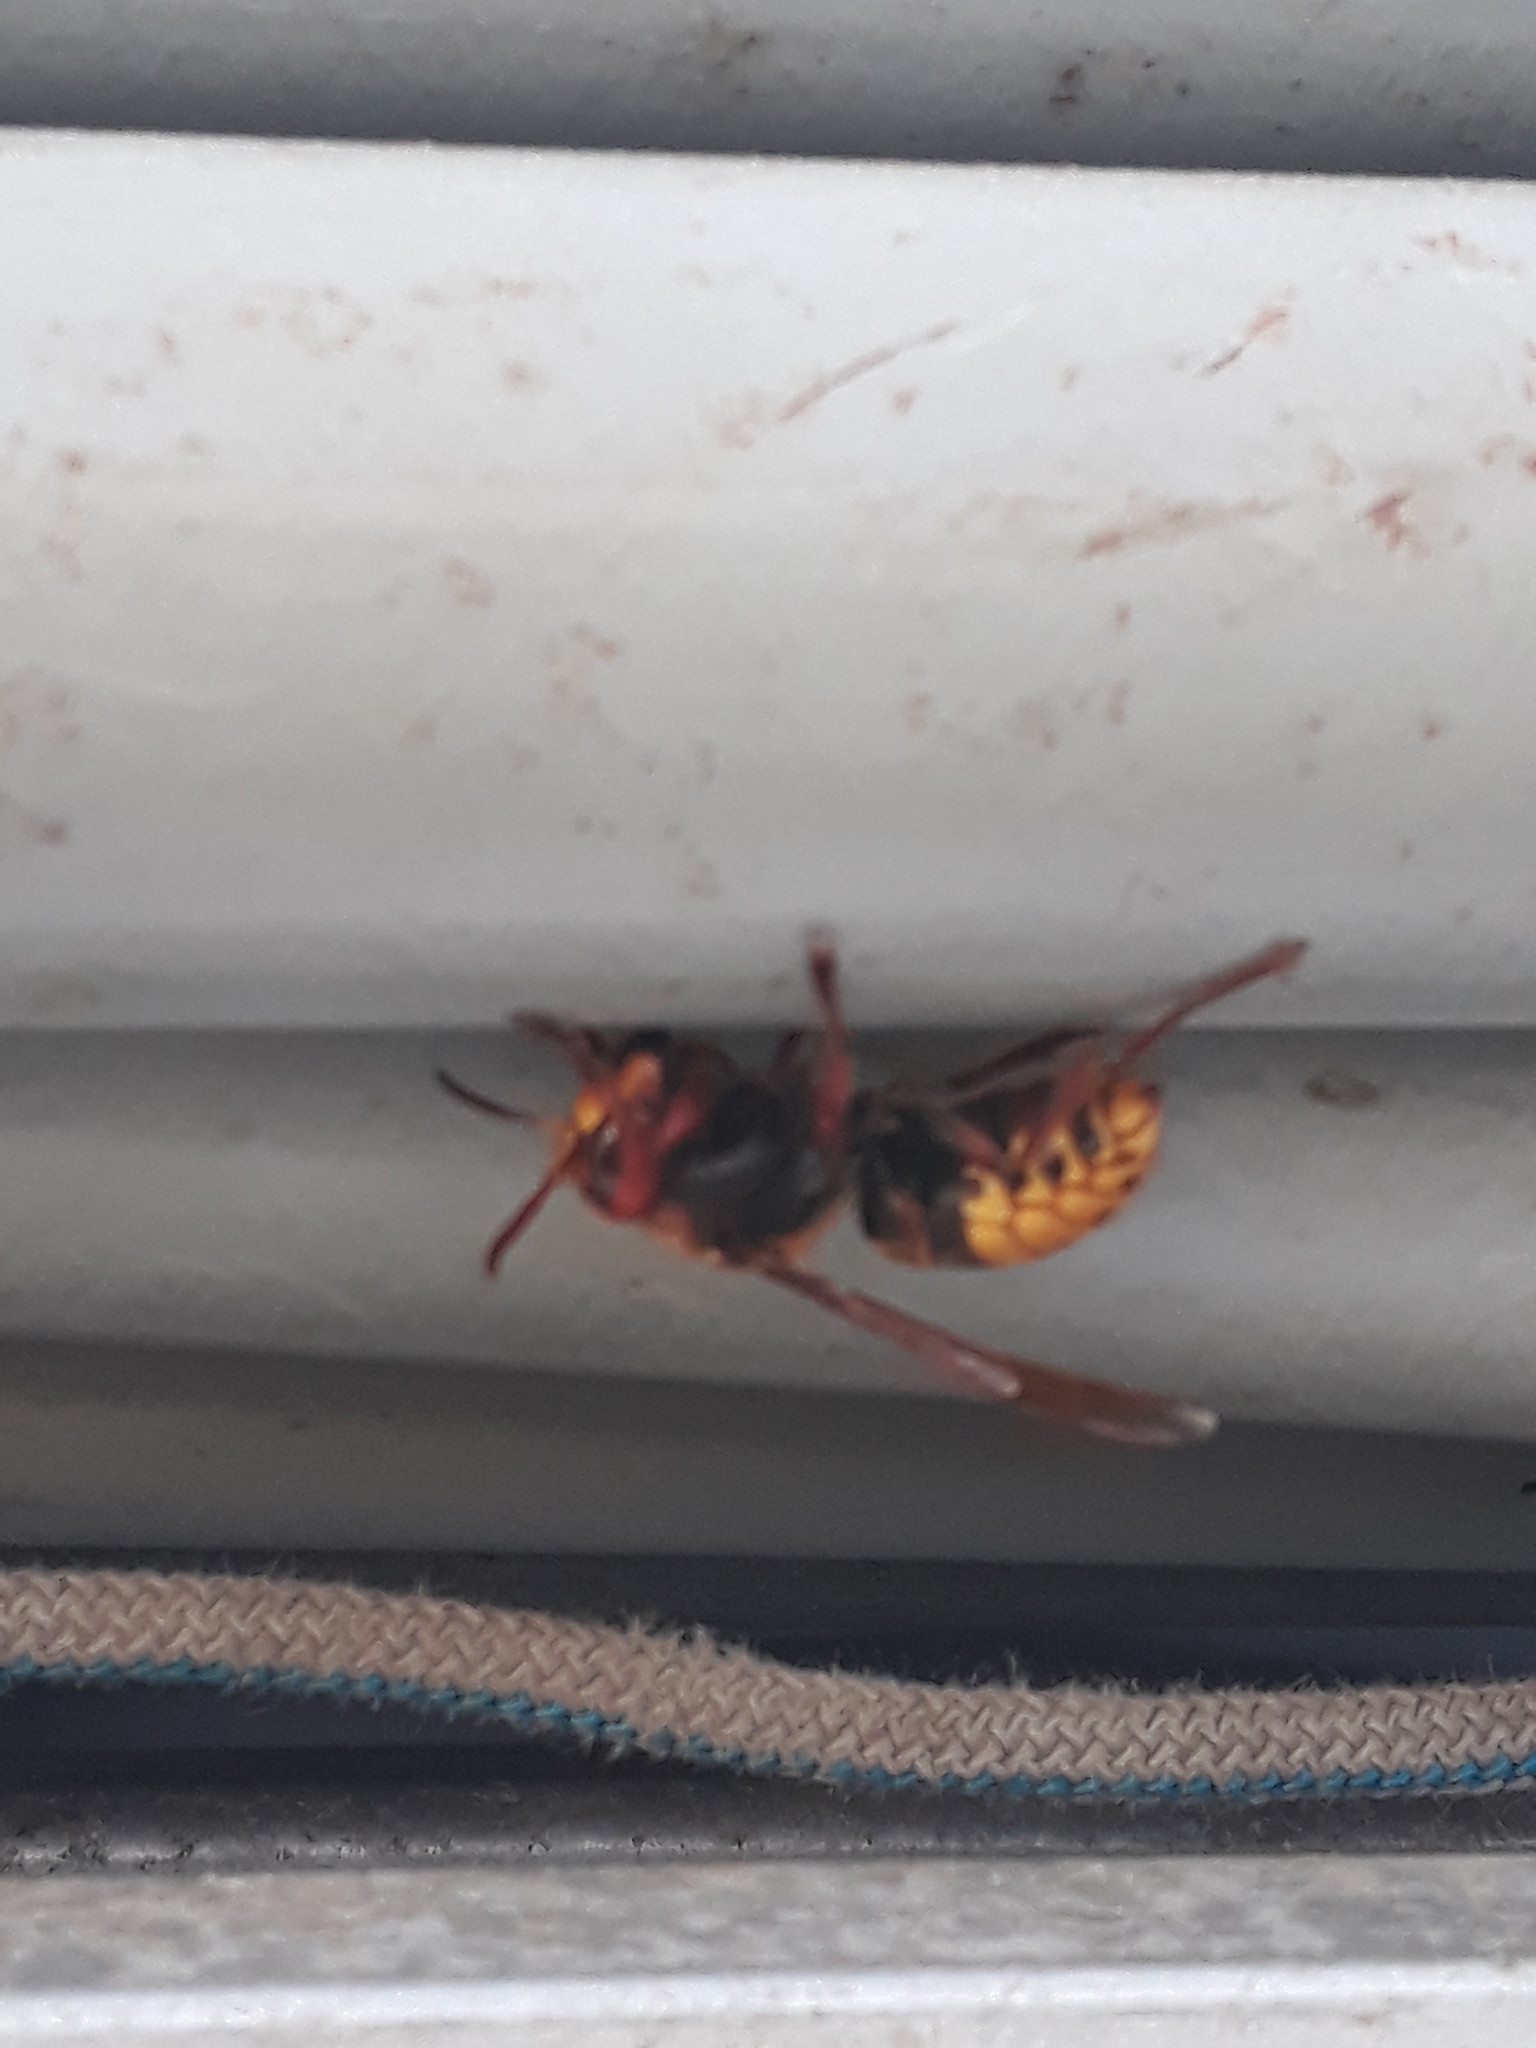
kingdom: Animalia
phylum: Arthropoda
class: Insecta
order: Hymenoptera
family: Vespidae
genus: Vespa
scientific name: Vespa crabro
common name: Hornet
